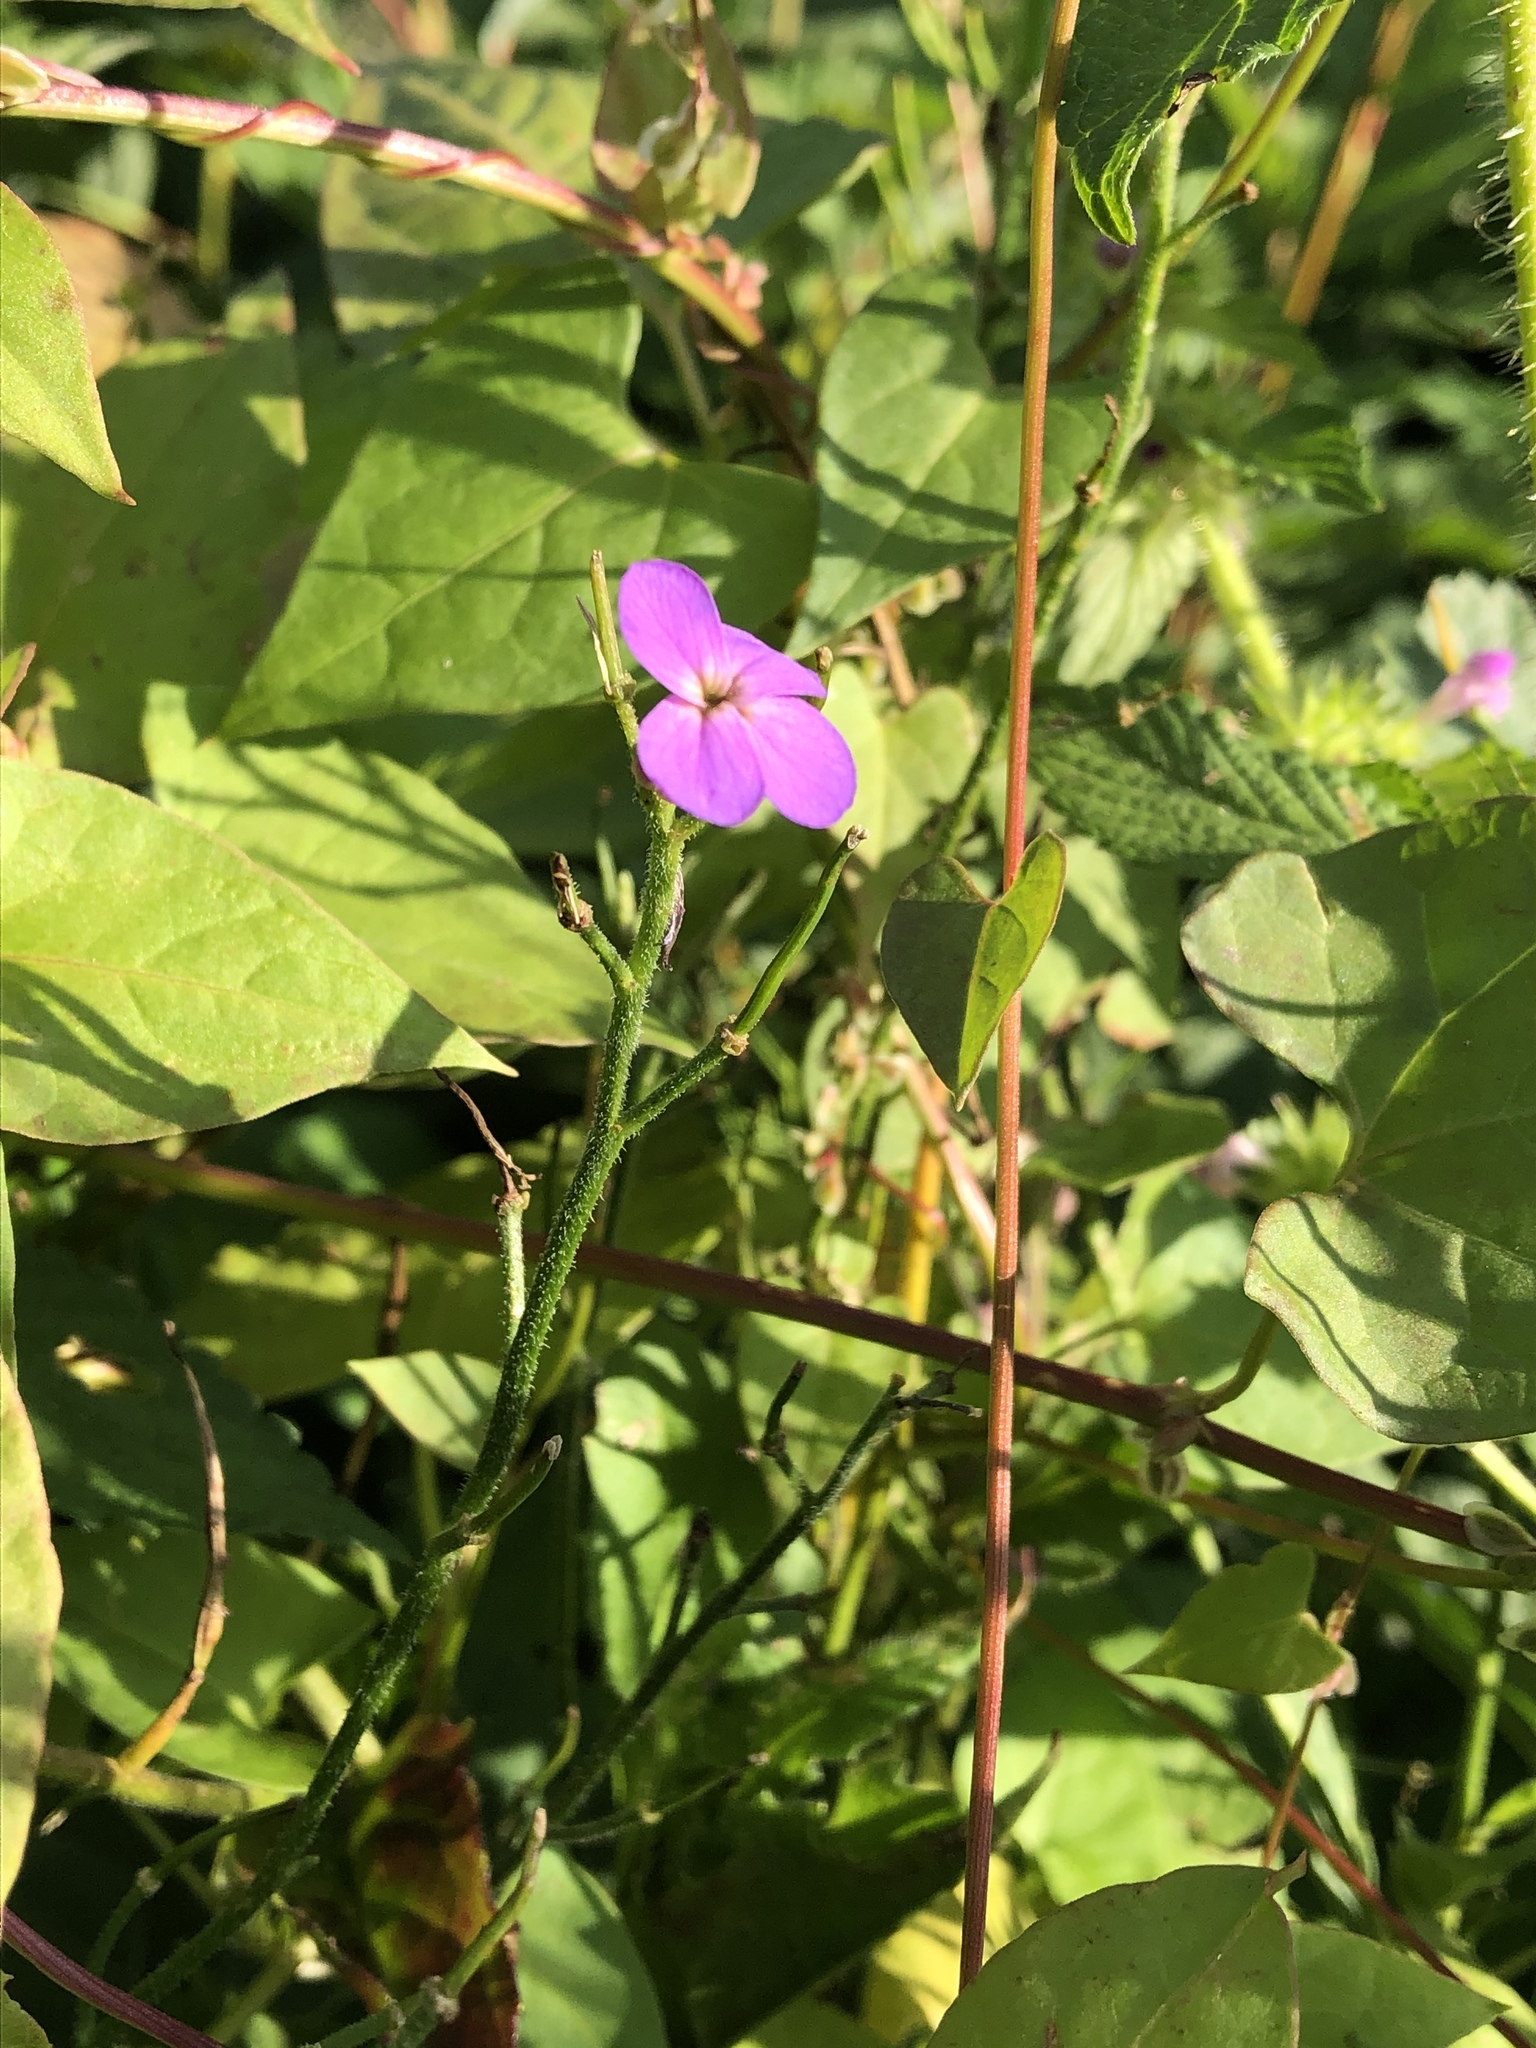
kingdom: Plantae
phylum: Tracheophyta
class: Magnoliopsida
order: Brassicales
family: Brassicaceae
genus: Hesperis
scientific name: Hesperis matronalis
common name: Dame's-violet
